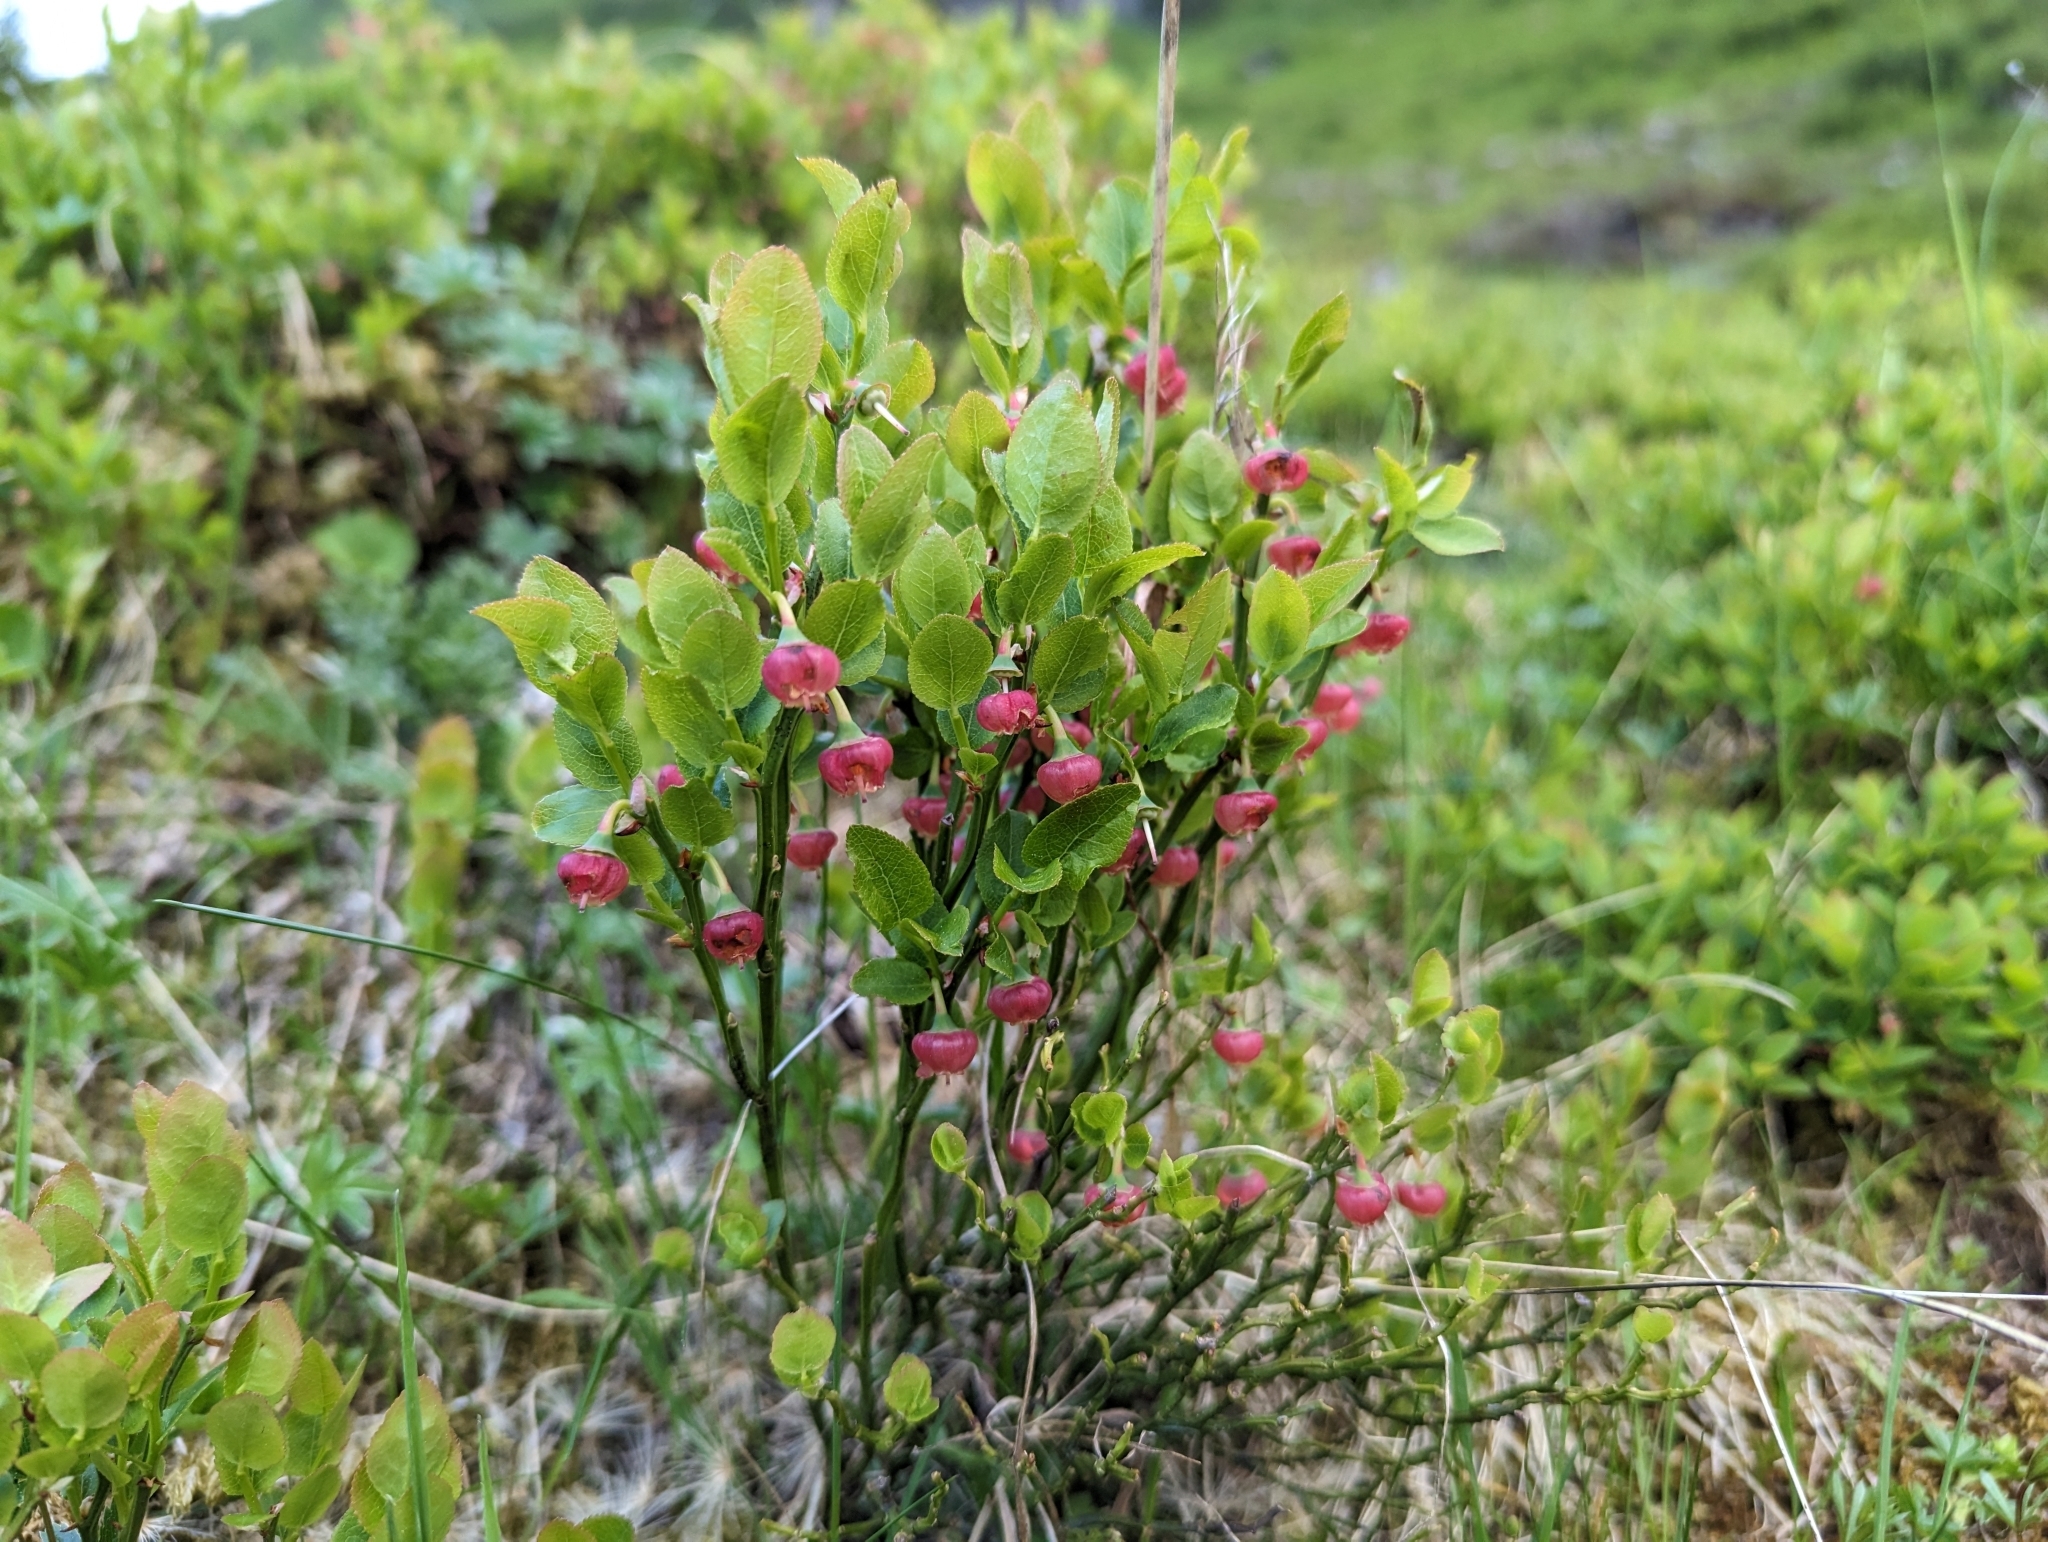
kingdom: Plantae
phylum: Tracheophyta
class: Magnoliopsida
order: Ericales
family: Ericaceae
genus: Vaccinium
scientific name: Vaccinium myrtillus
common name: Bilberry
